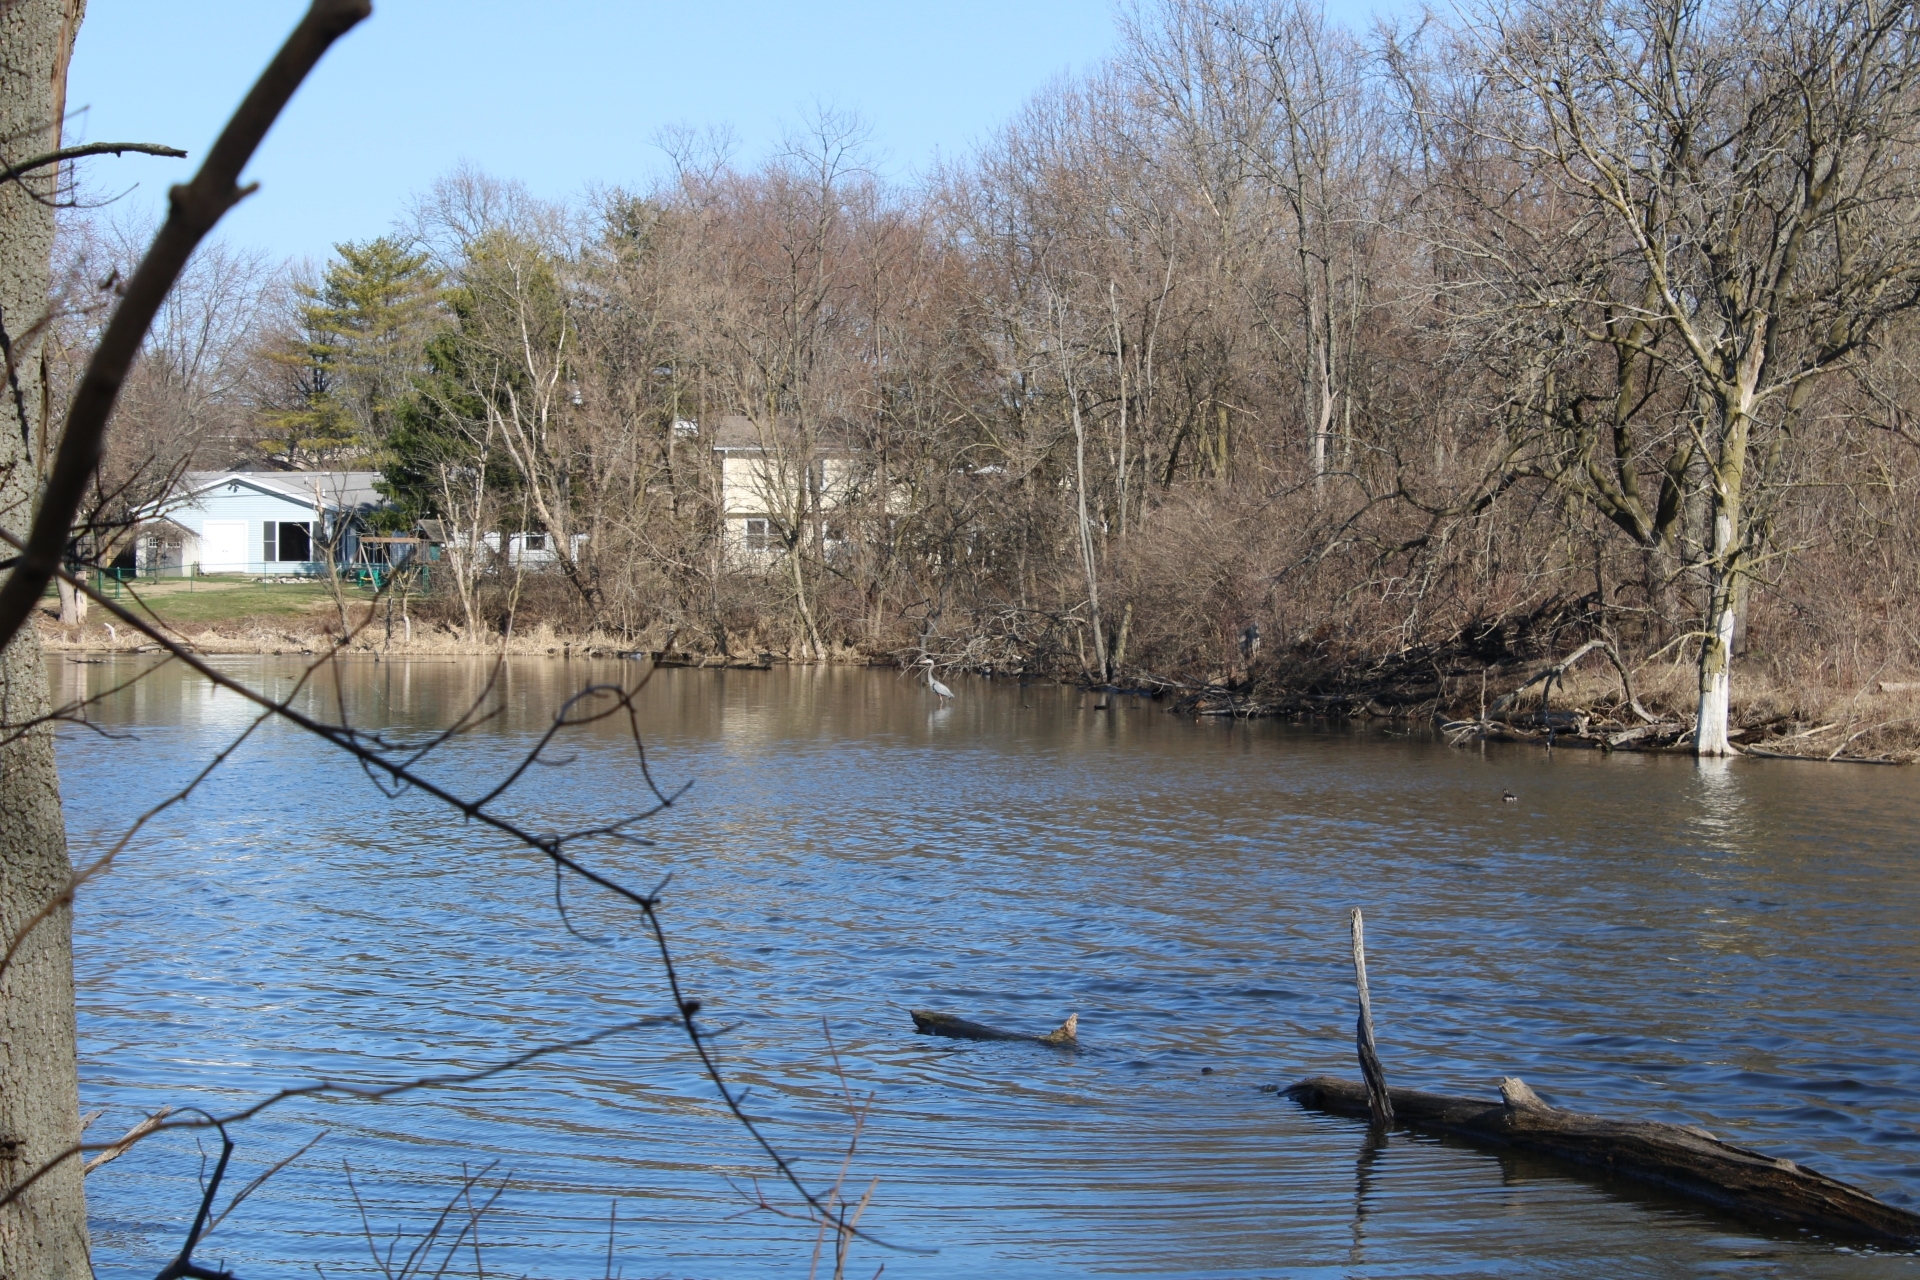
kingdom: Animalia
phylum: Chordata
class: Aves
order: Pelecaniformes
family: Ardeidae
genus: Ardea
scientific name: Ardea herodias
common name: Great blue heron
